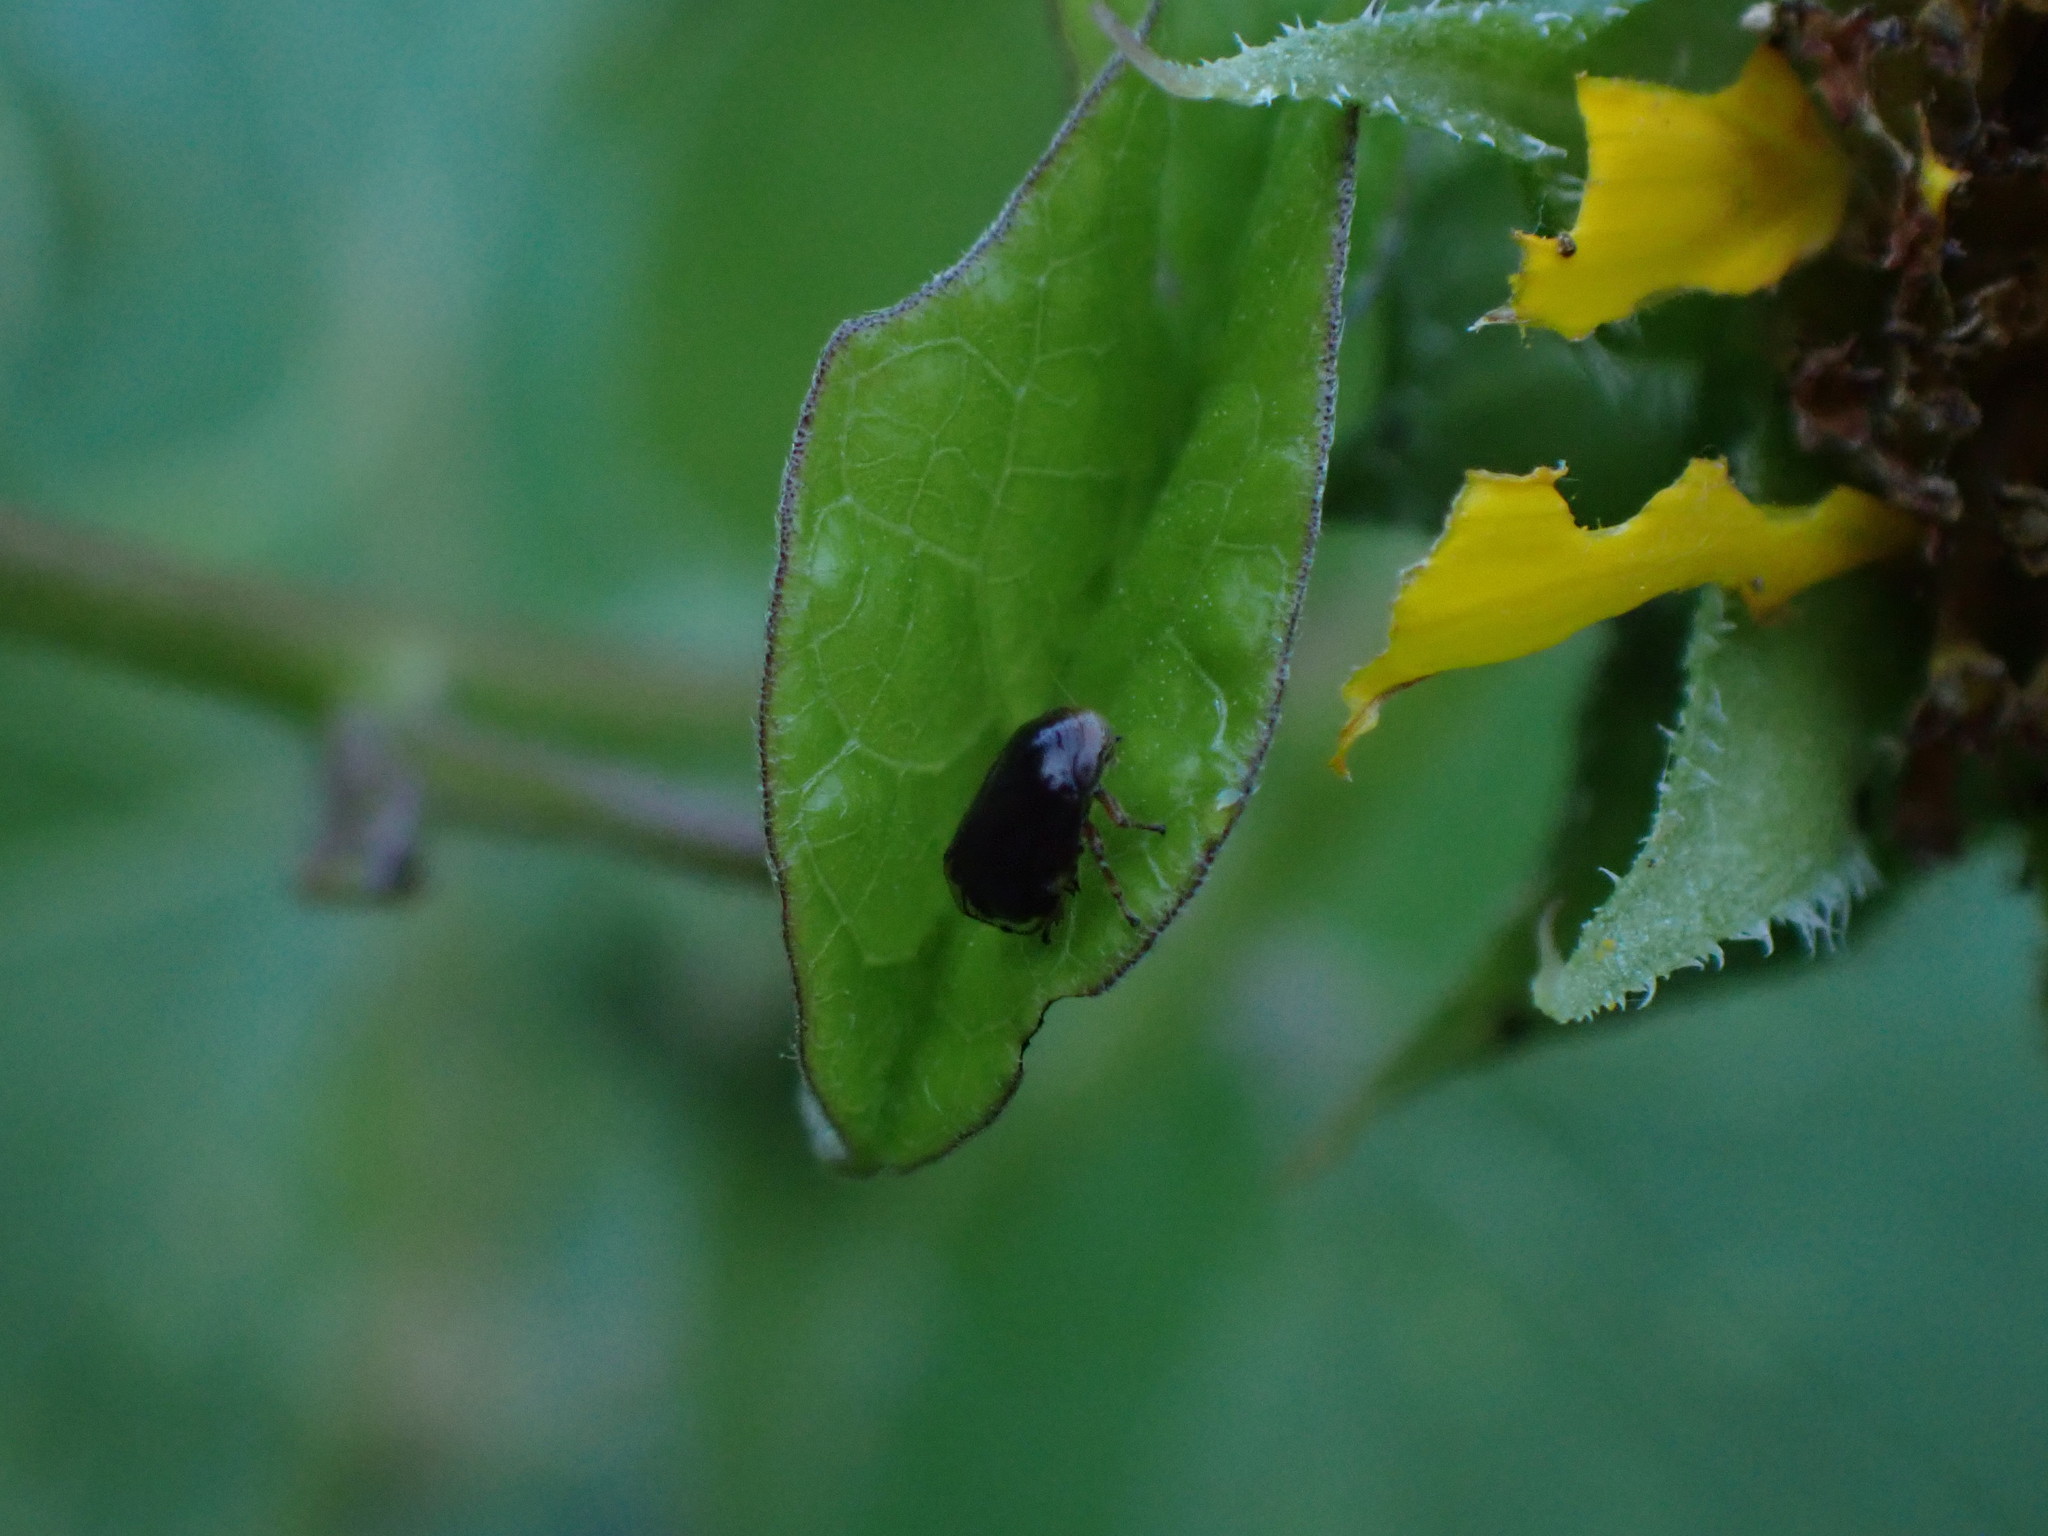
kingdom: Animalia
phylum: Arthropoda
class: Insecta
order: Hemiptera
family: Clastopteridae
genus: Clastoptera
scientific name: Clastoptera xanthocephala
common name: Sunflower spittlebug
